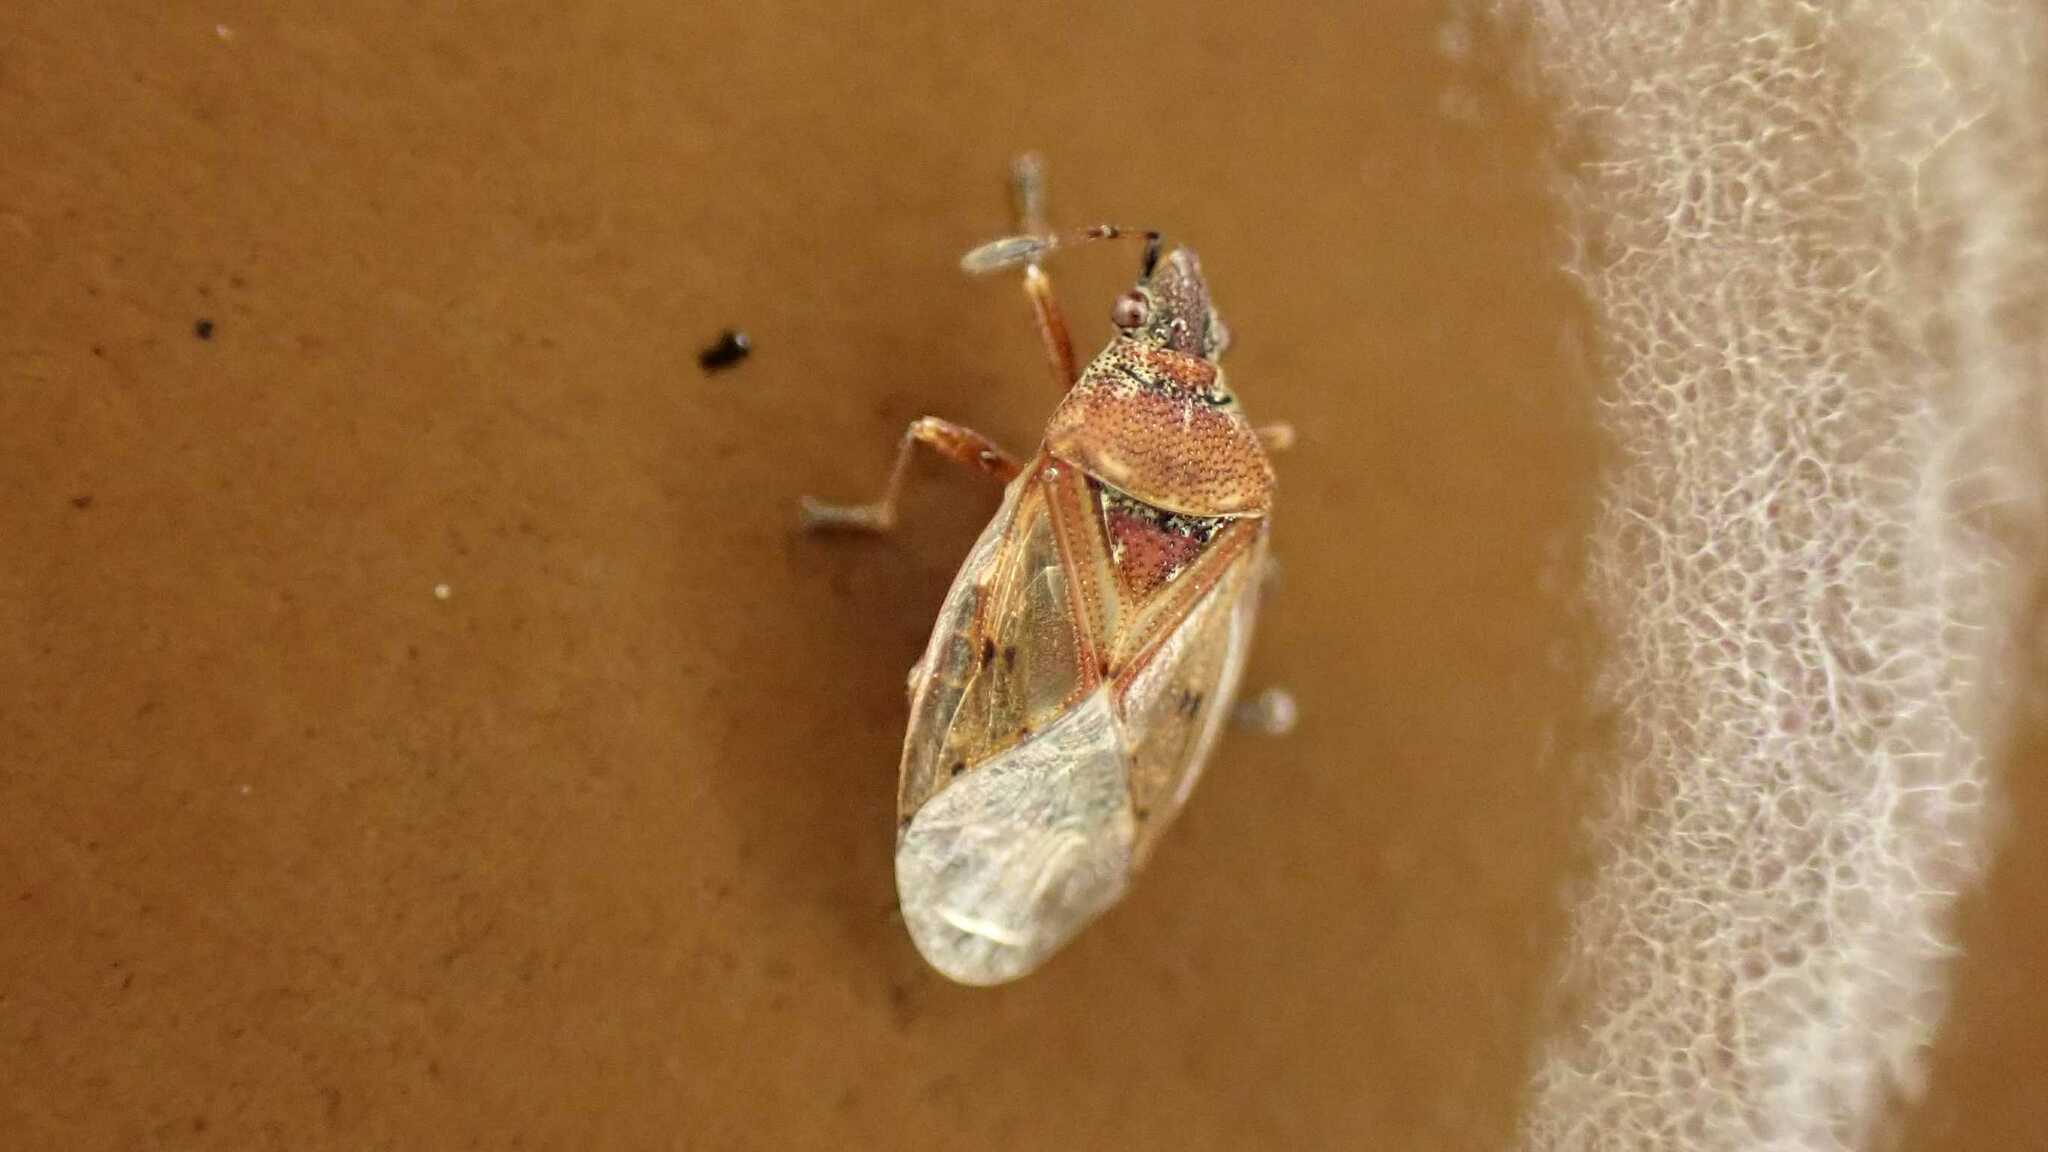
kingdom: Animalia
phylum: Arthropoda
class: Insecta
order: Hemiptera
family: Lygaeidae
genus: Kleidocerys
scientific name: Kleidocerys resedae
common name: Birch catkin bug
